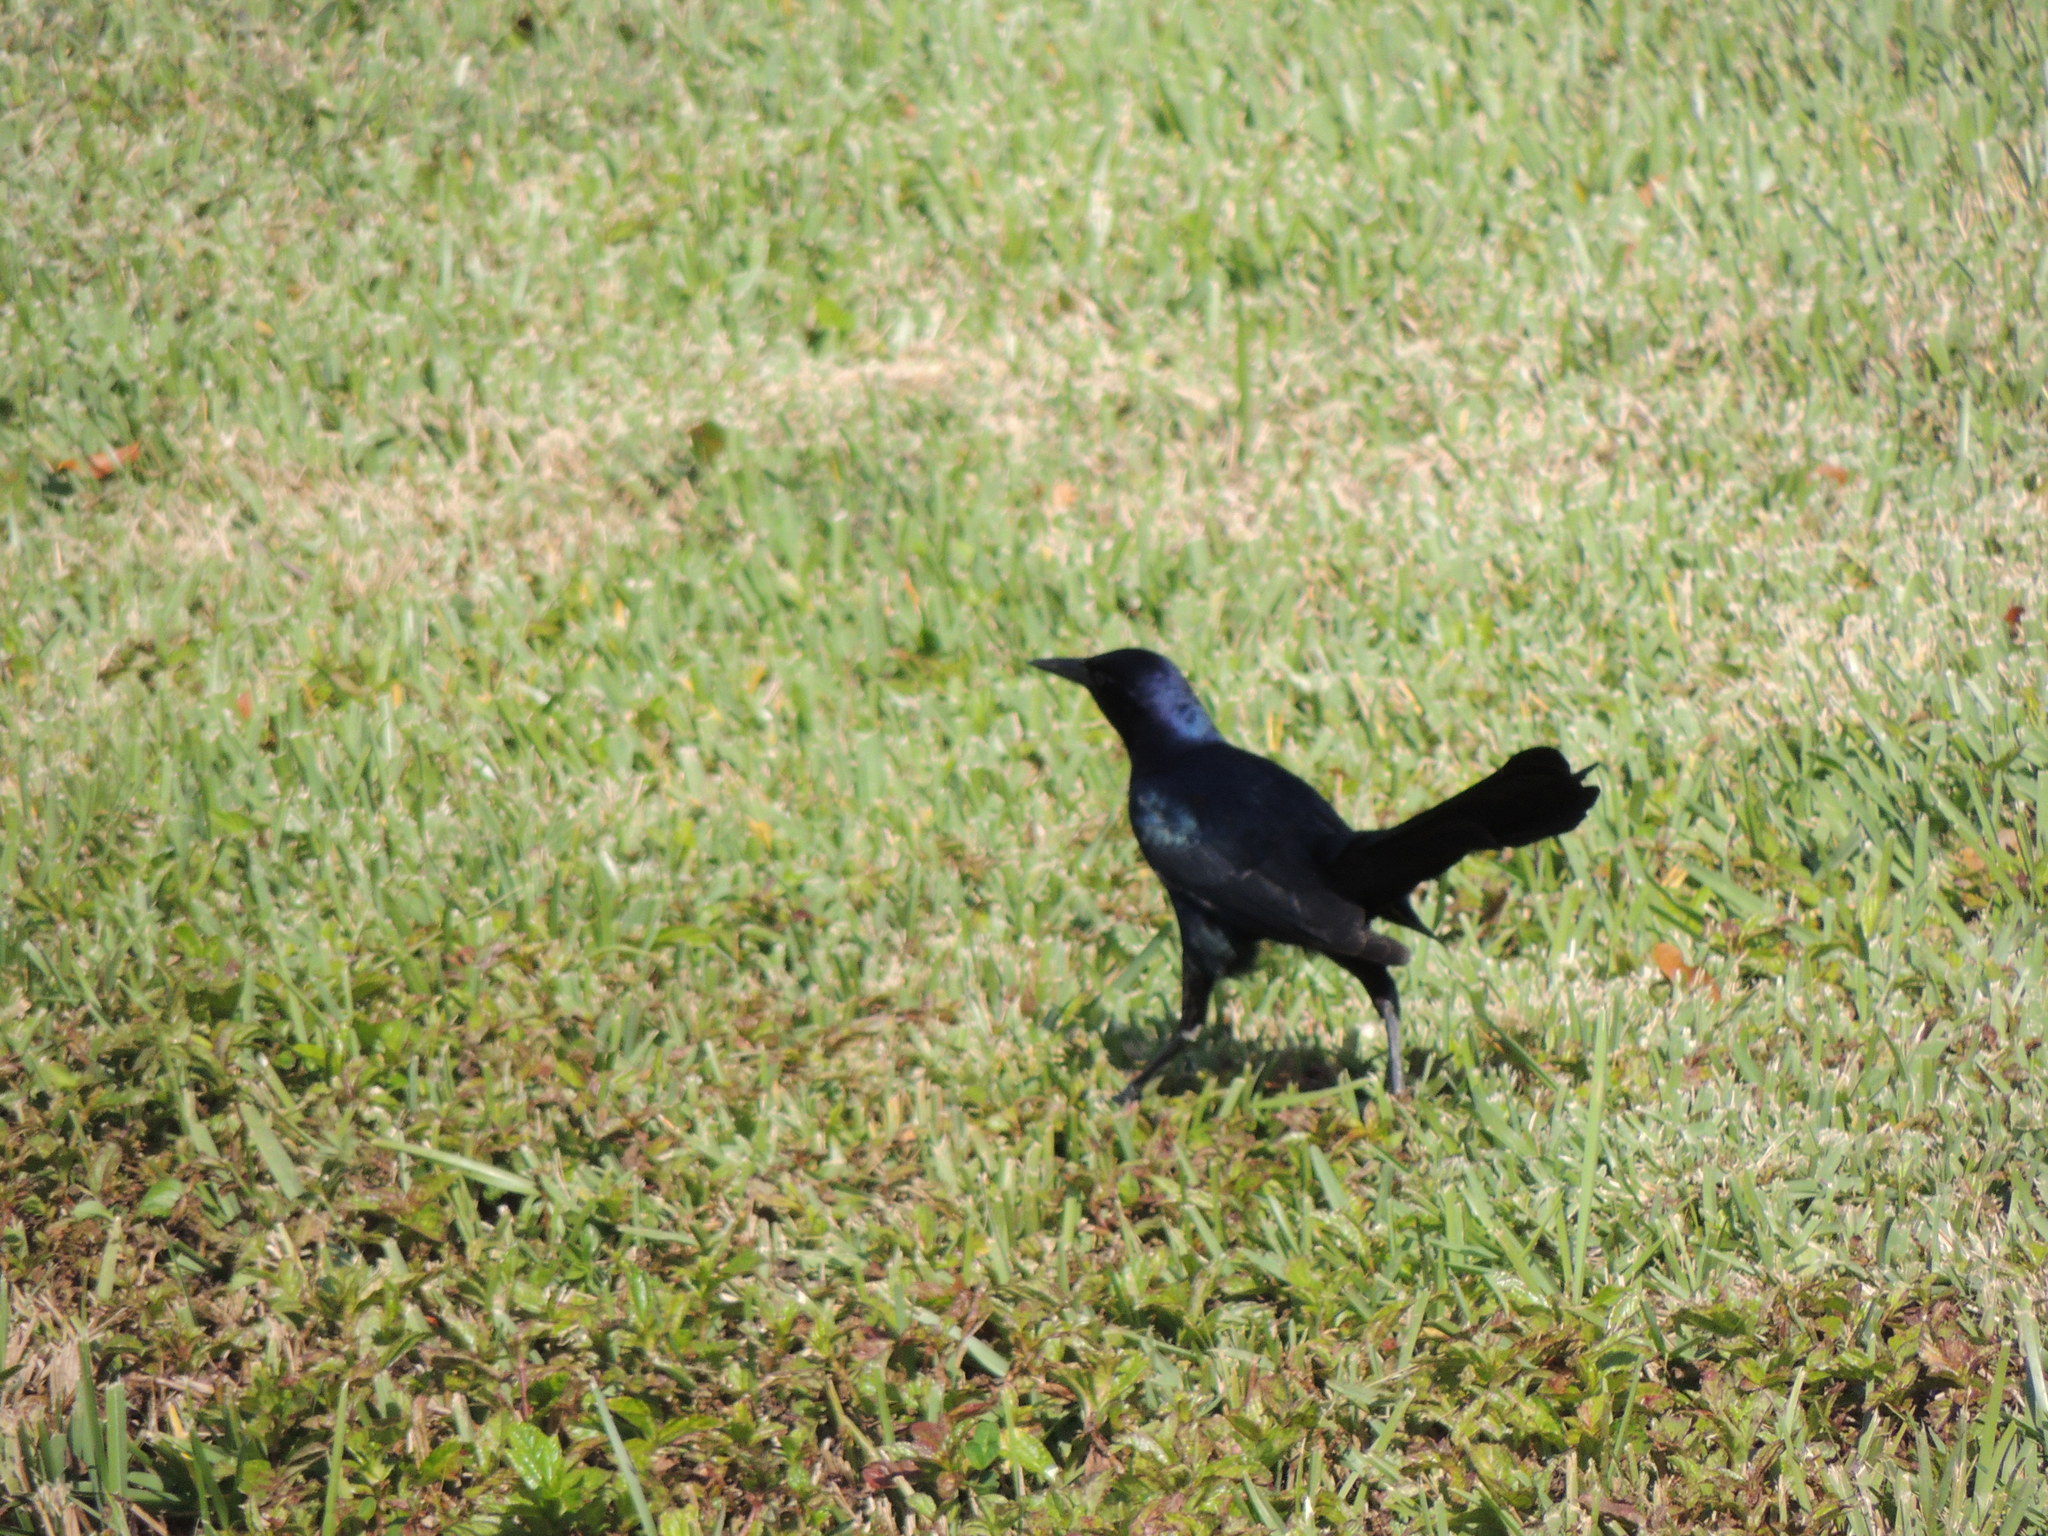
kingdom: Animalia
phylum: Chordata
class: Aves
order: Passeriformes
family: Icteridae
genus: Quiscalus
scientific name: Quiscalus major
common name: Boat-tailed grackle
